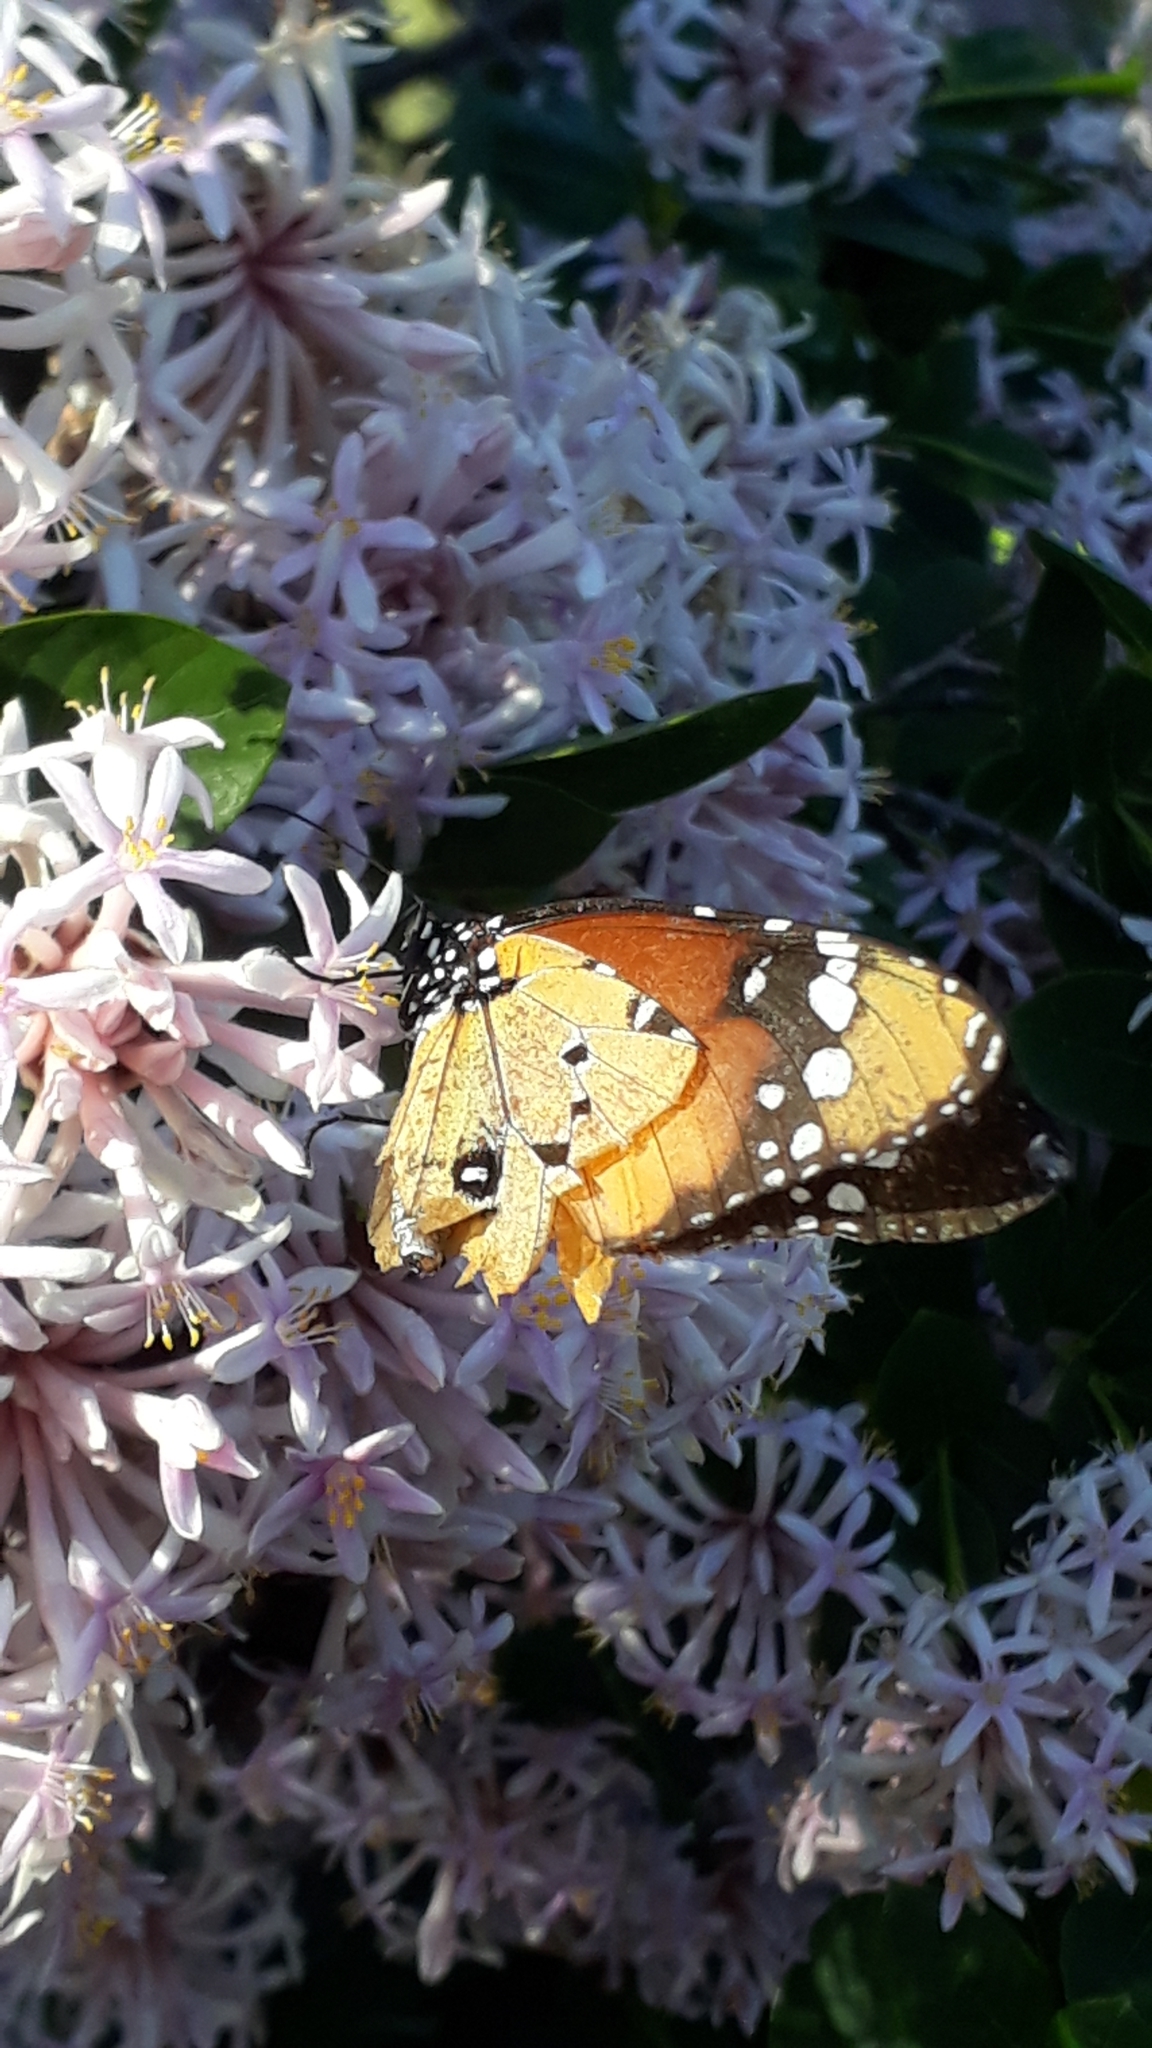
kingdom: Animalia
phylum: Arthropoda
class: Insecta
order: Lepidoptera
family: Nymphalidae
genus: Danaus
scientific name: Danaus chrysippus
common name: Plain tiger
